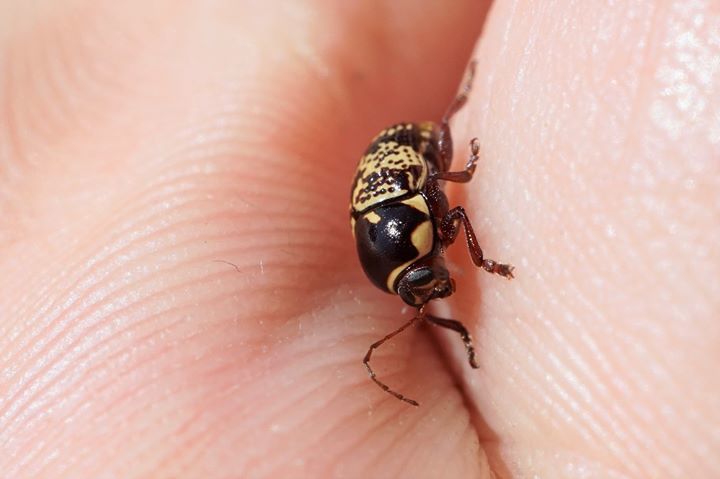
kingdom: Animalia
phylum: Arthropoda
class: Insecta
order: Coleoptera
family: Chrysomelidae
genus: Cryptocephalus
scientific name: Cryptocephalus irroratus
